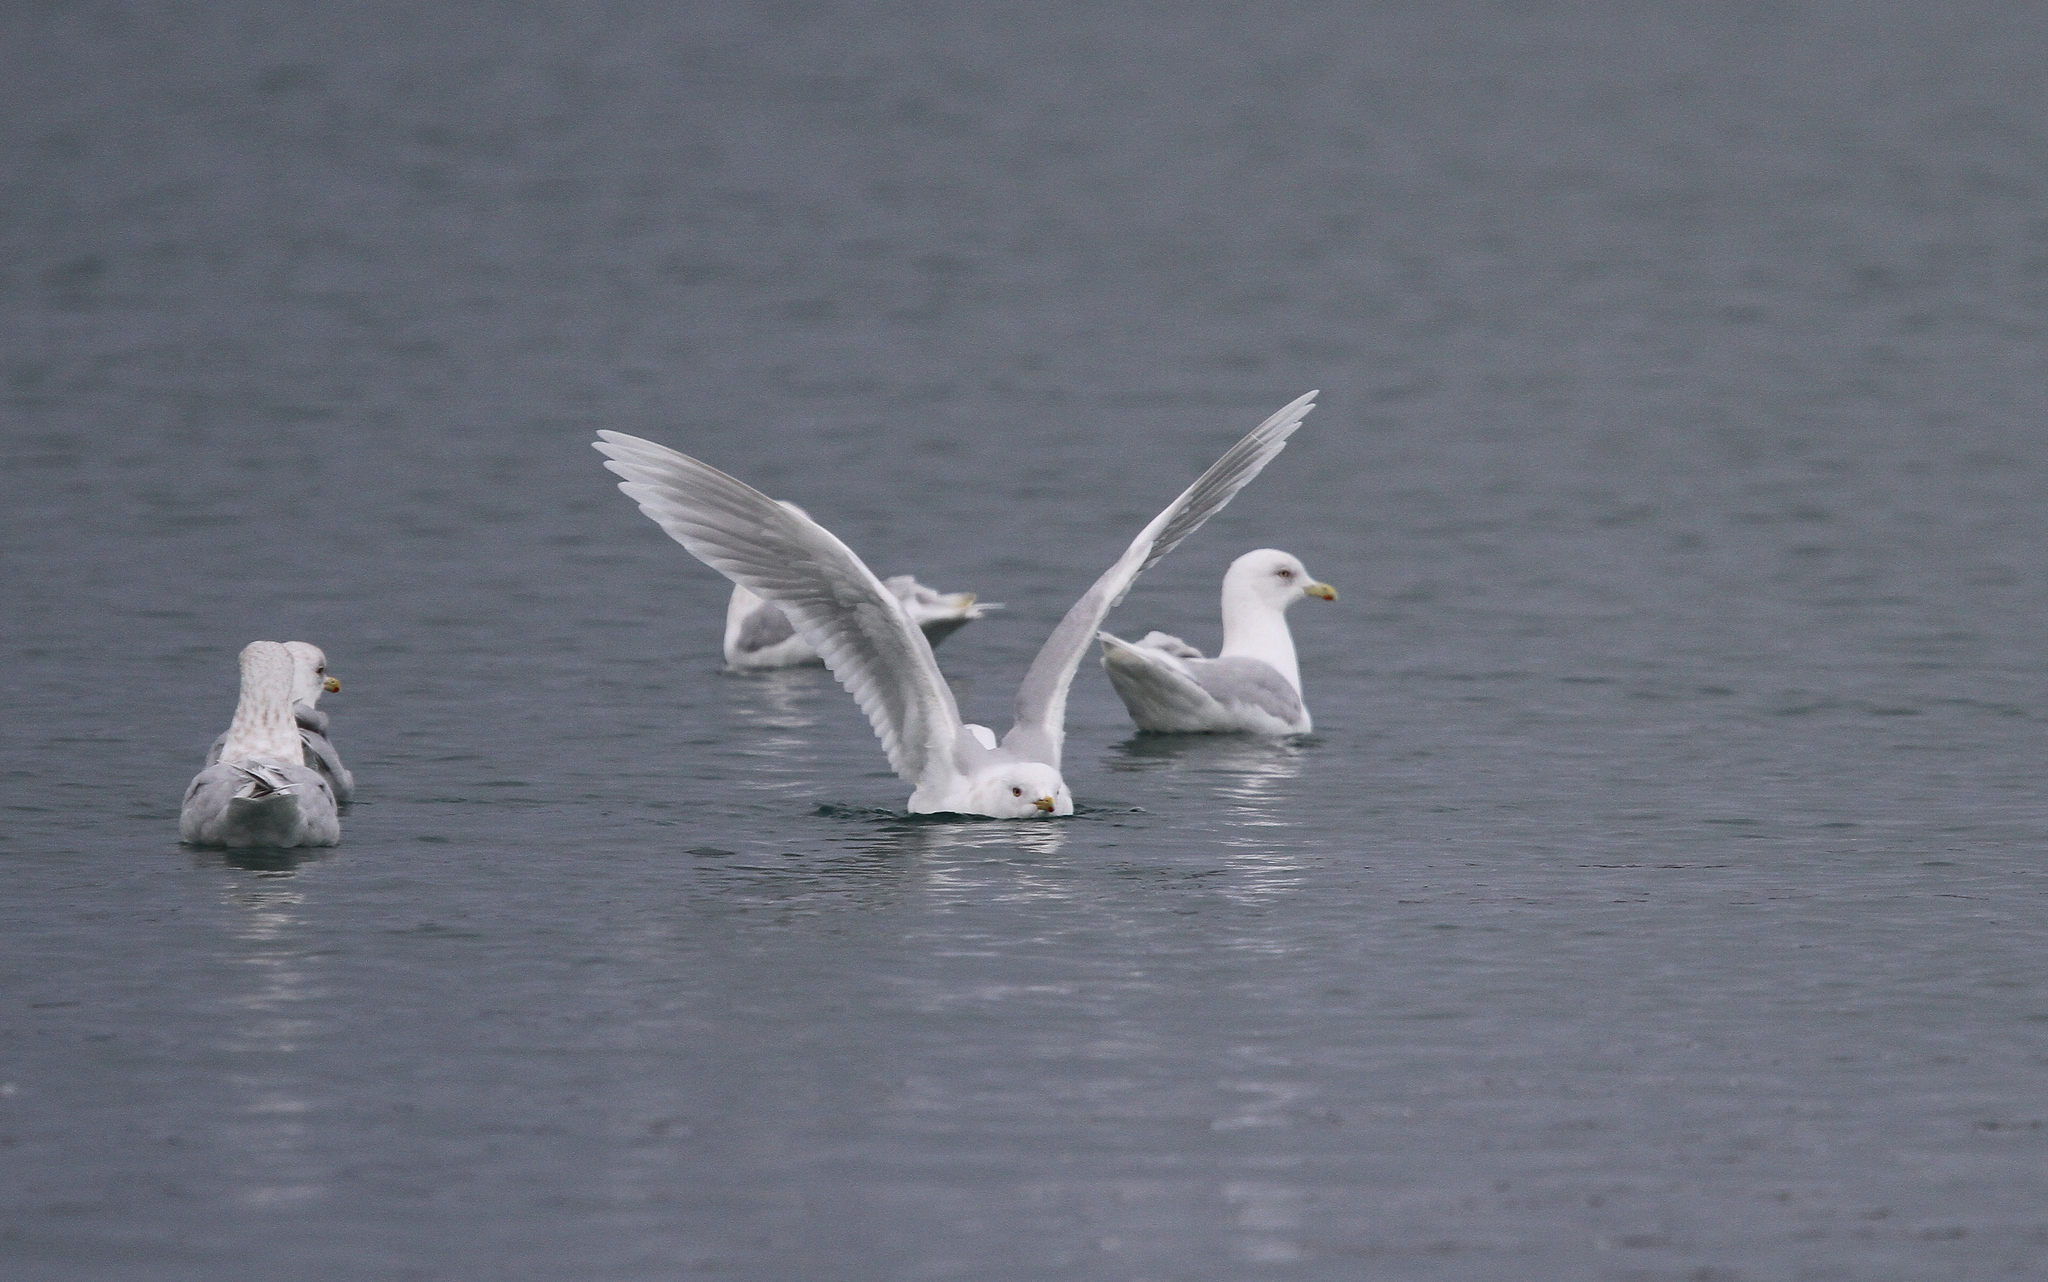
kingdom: Animalia
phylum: Chordata
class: Aves
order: Charadriiformes
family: Laridae
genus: Larus
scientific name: Larus glaucoides
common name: Iceland gull
